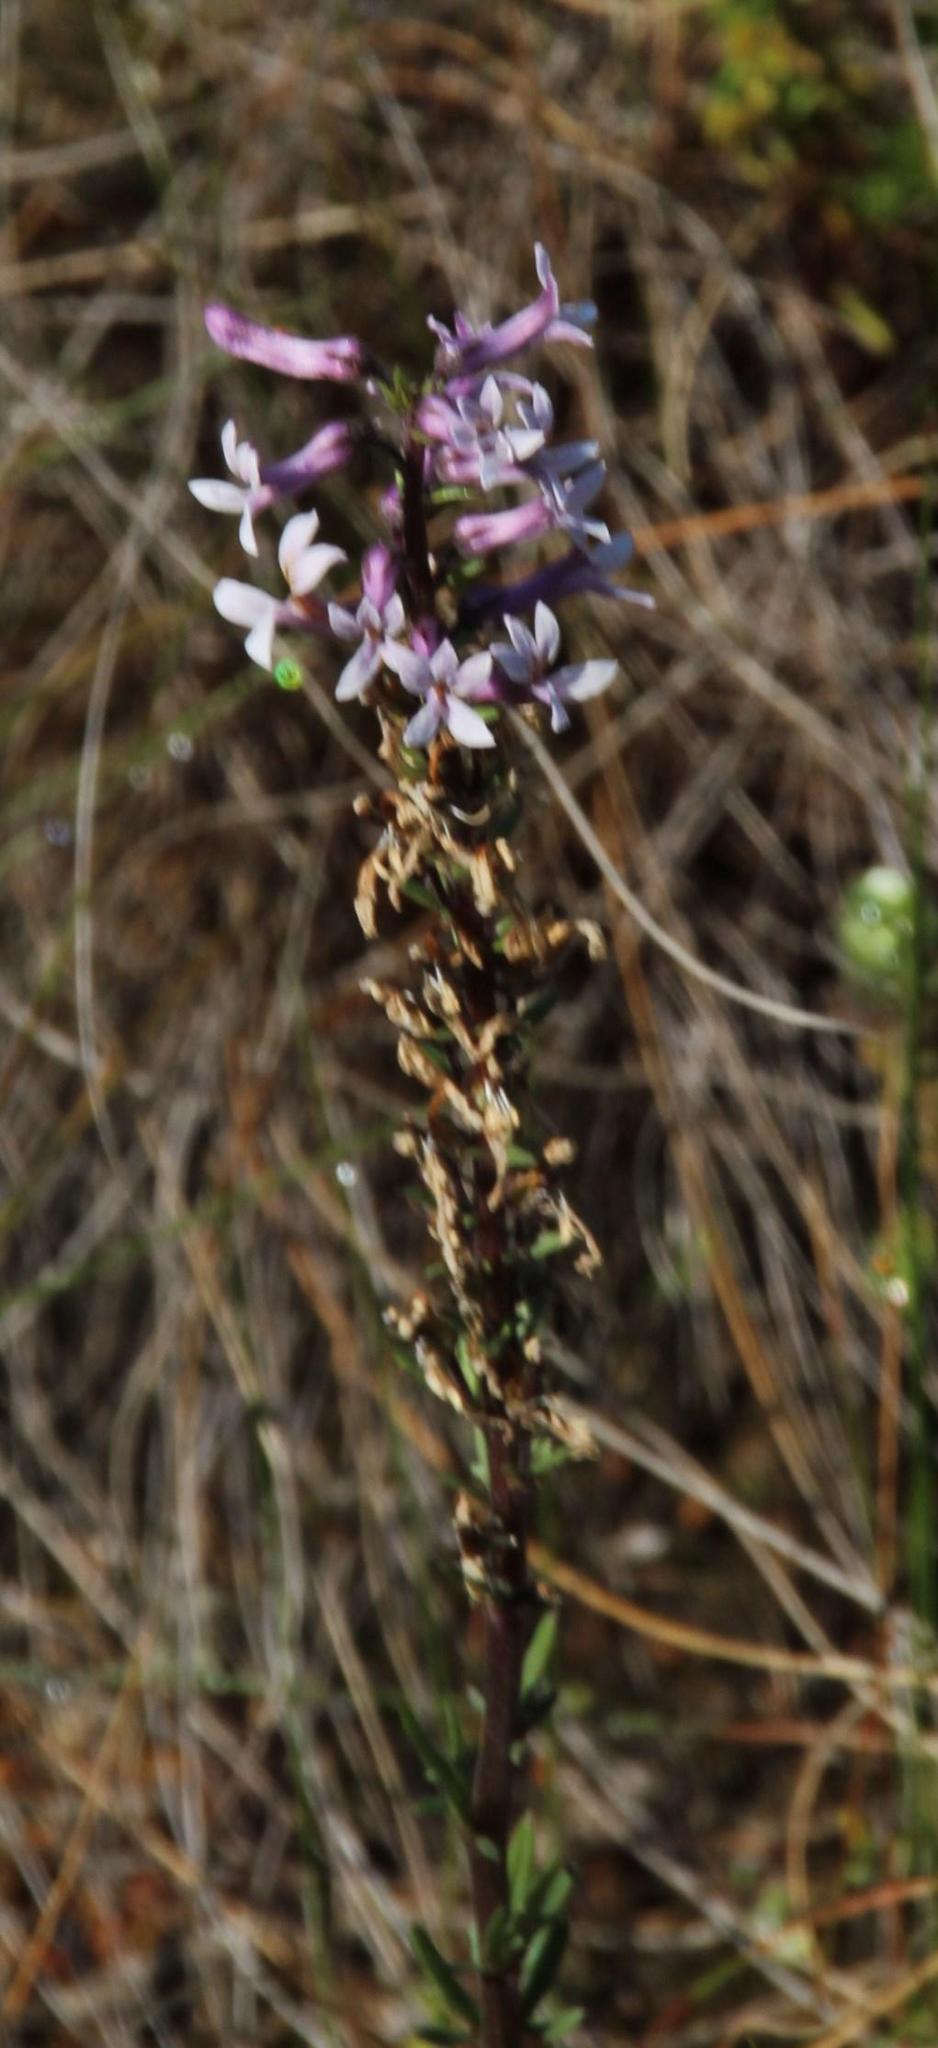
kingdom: Plantae
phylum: Tracheophyta
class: Magnoliopsida
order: Asterales
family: Campanulaceae
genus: Cyphia
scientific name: Cyphia bulbosa
